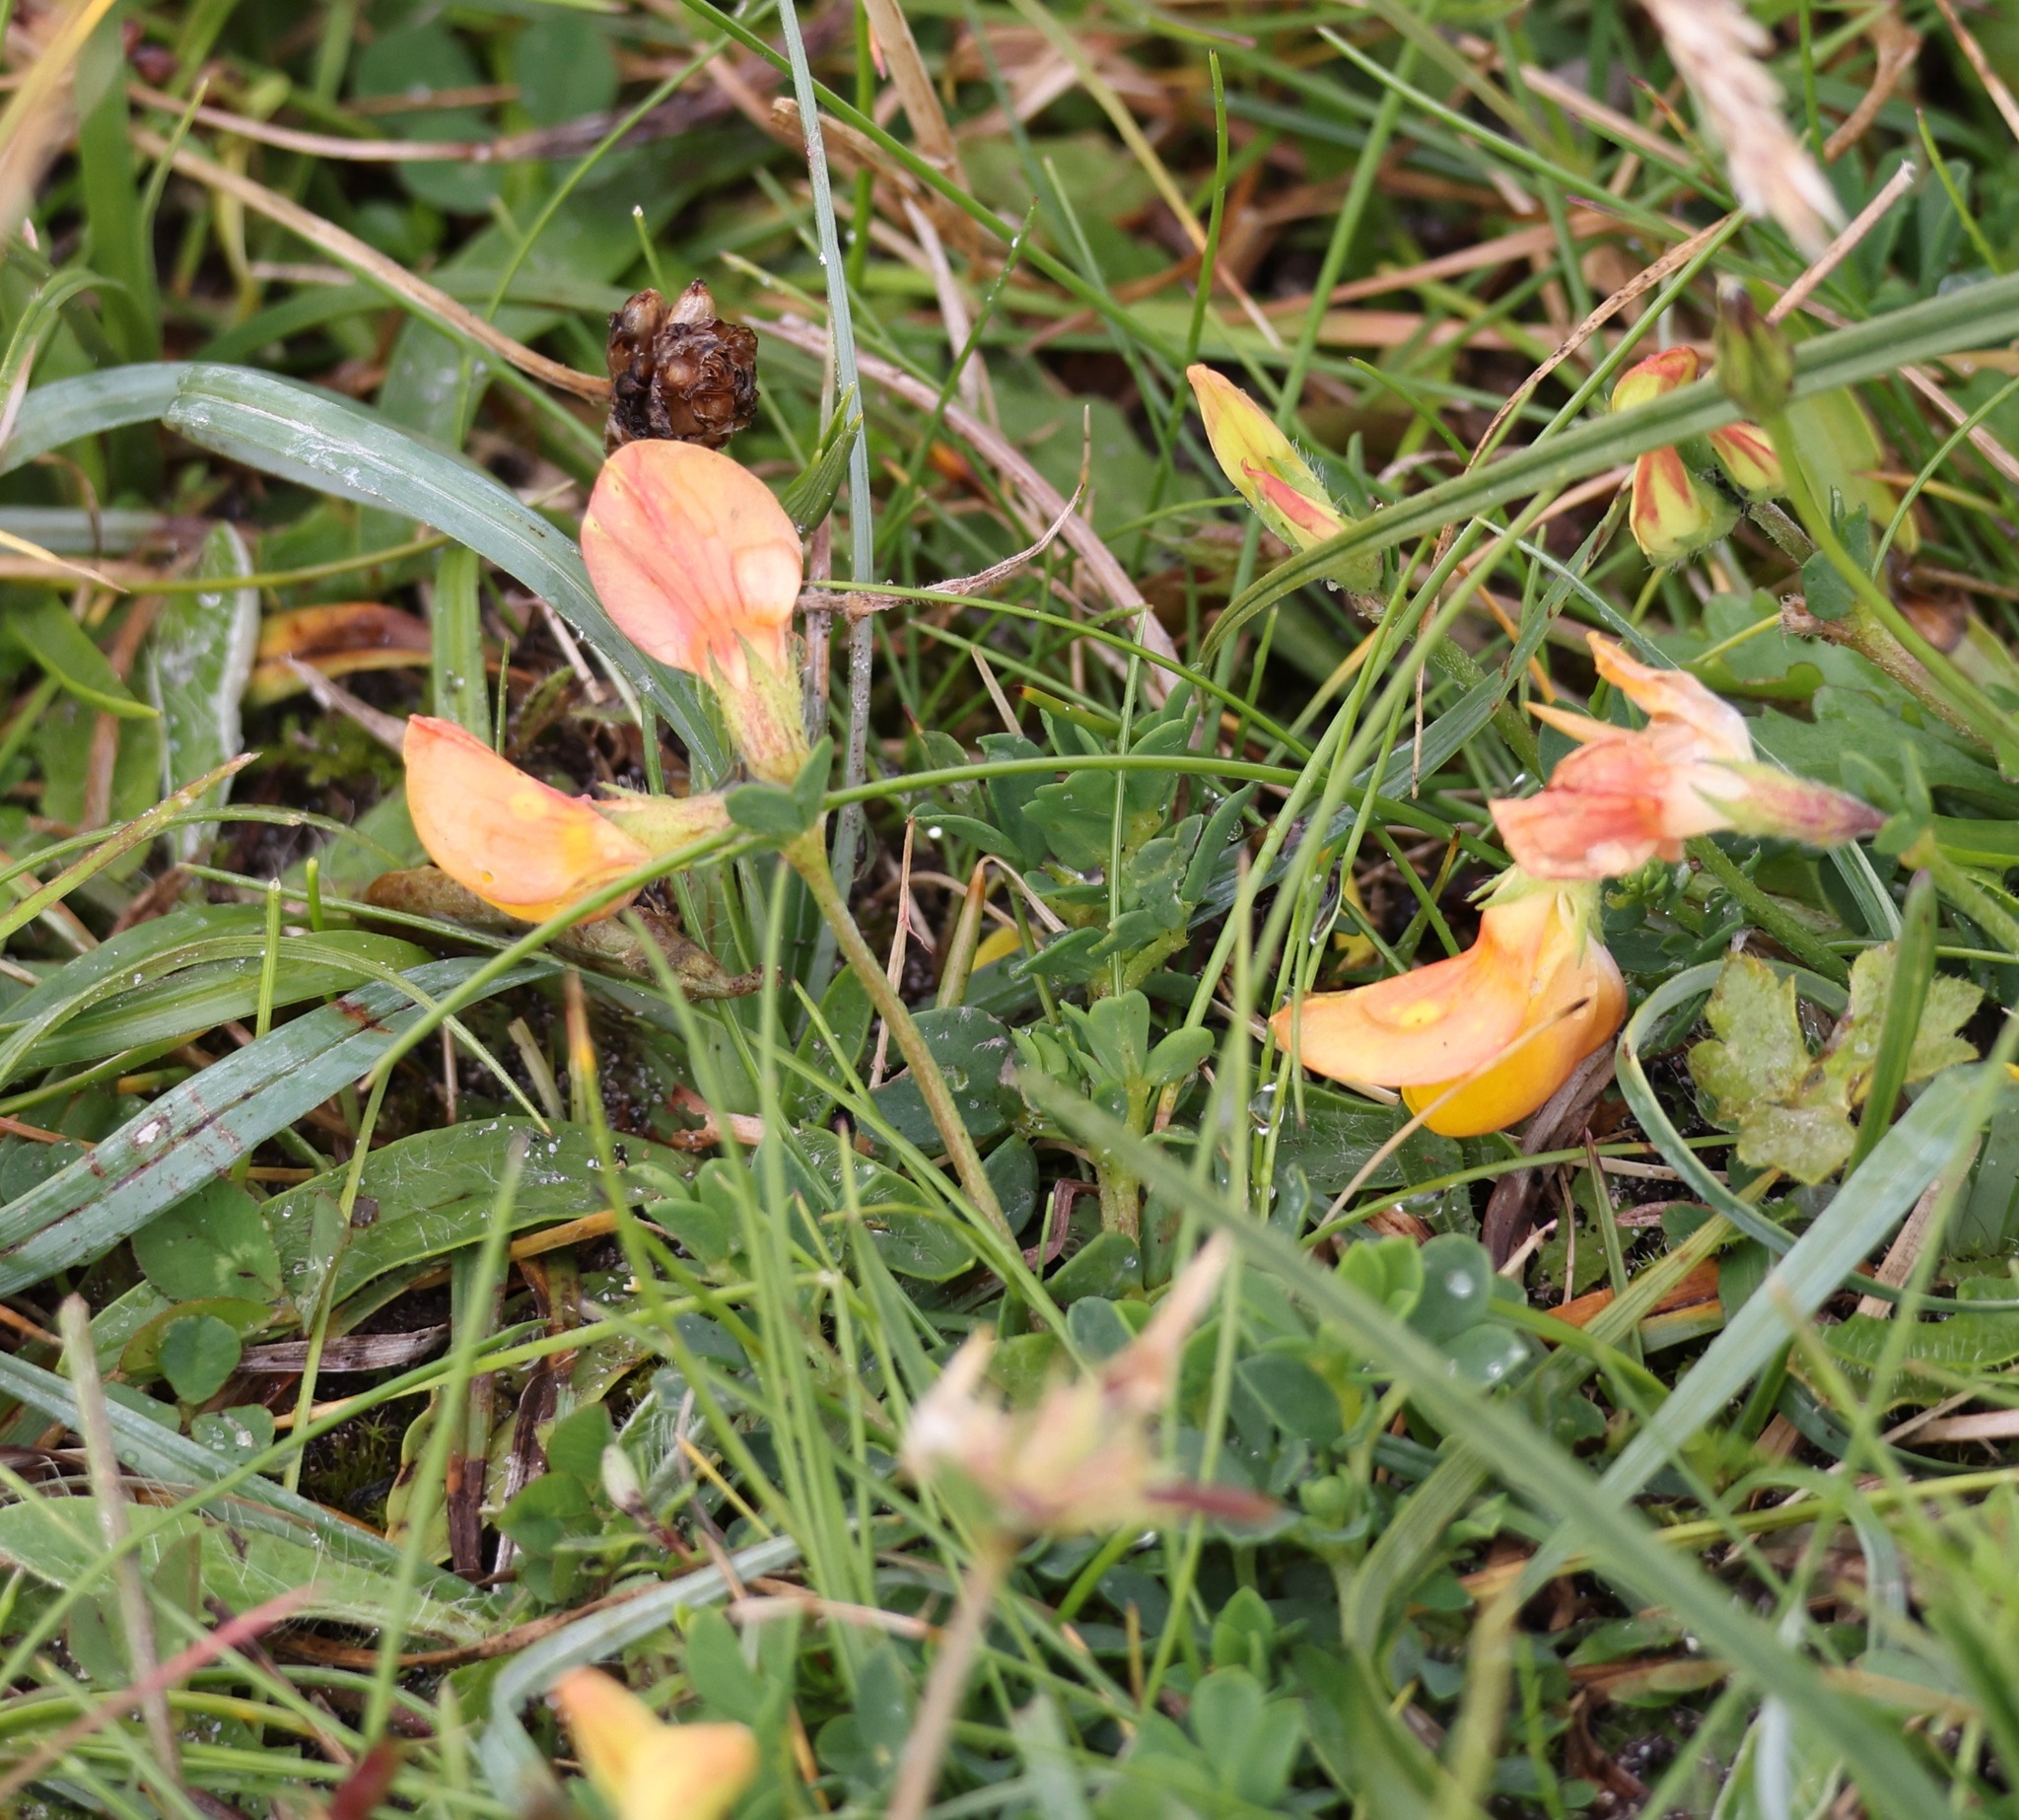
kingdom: Plantae
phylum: Tracheophyta
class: Magnoliopsida
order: Fabales
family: Fabaceae
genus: Lotus
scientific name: Lotus corniculatus
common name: Common bird's-foot-trefoil
